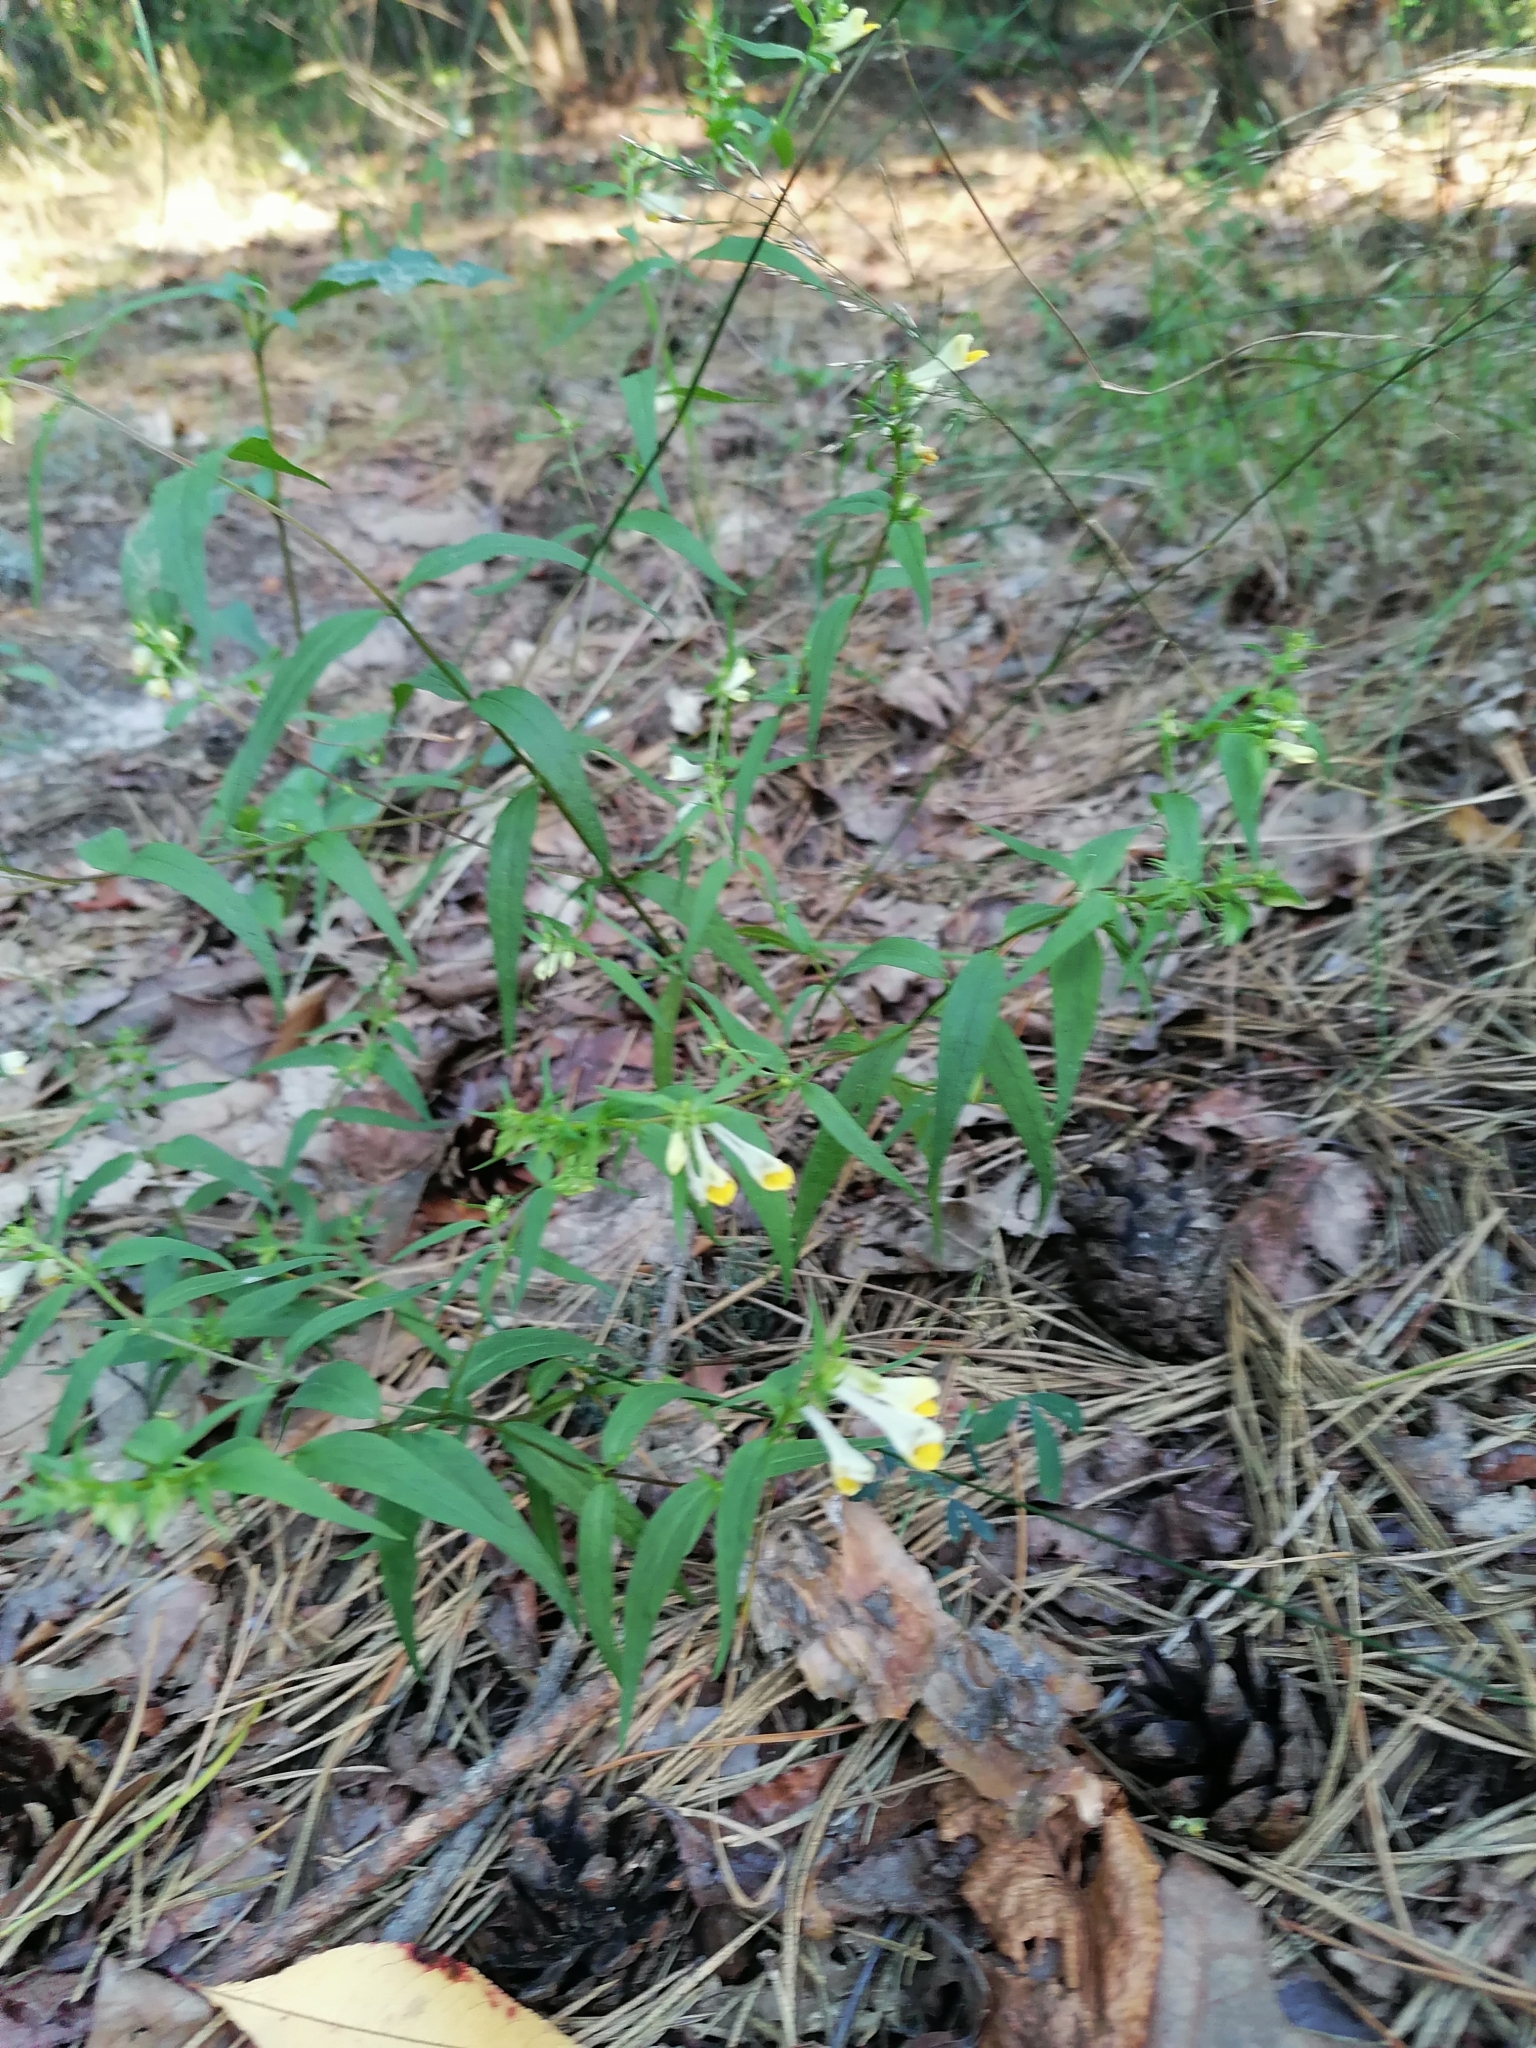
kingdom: Plantae
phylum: Tracheophyta
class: Magnoliopsida
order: Lamiales
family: Orobanchaceae
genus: Melampyrum
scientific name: Melampyrum pratense
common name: Common cow-wheat
